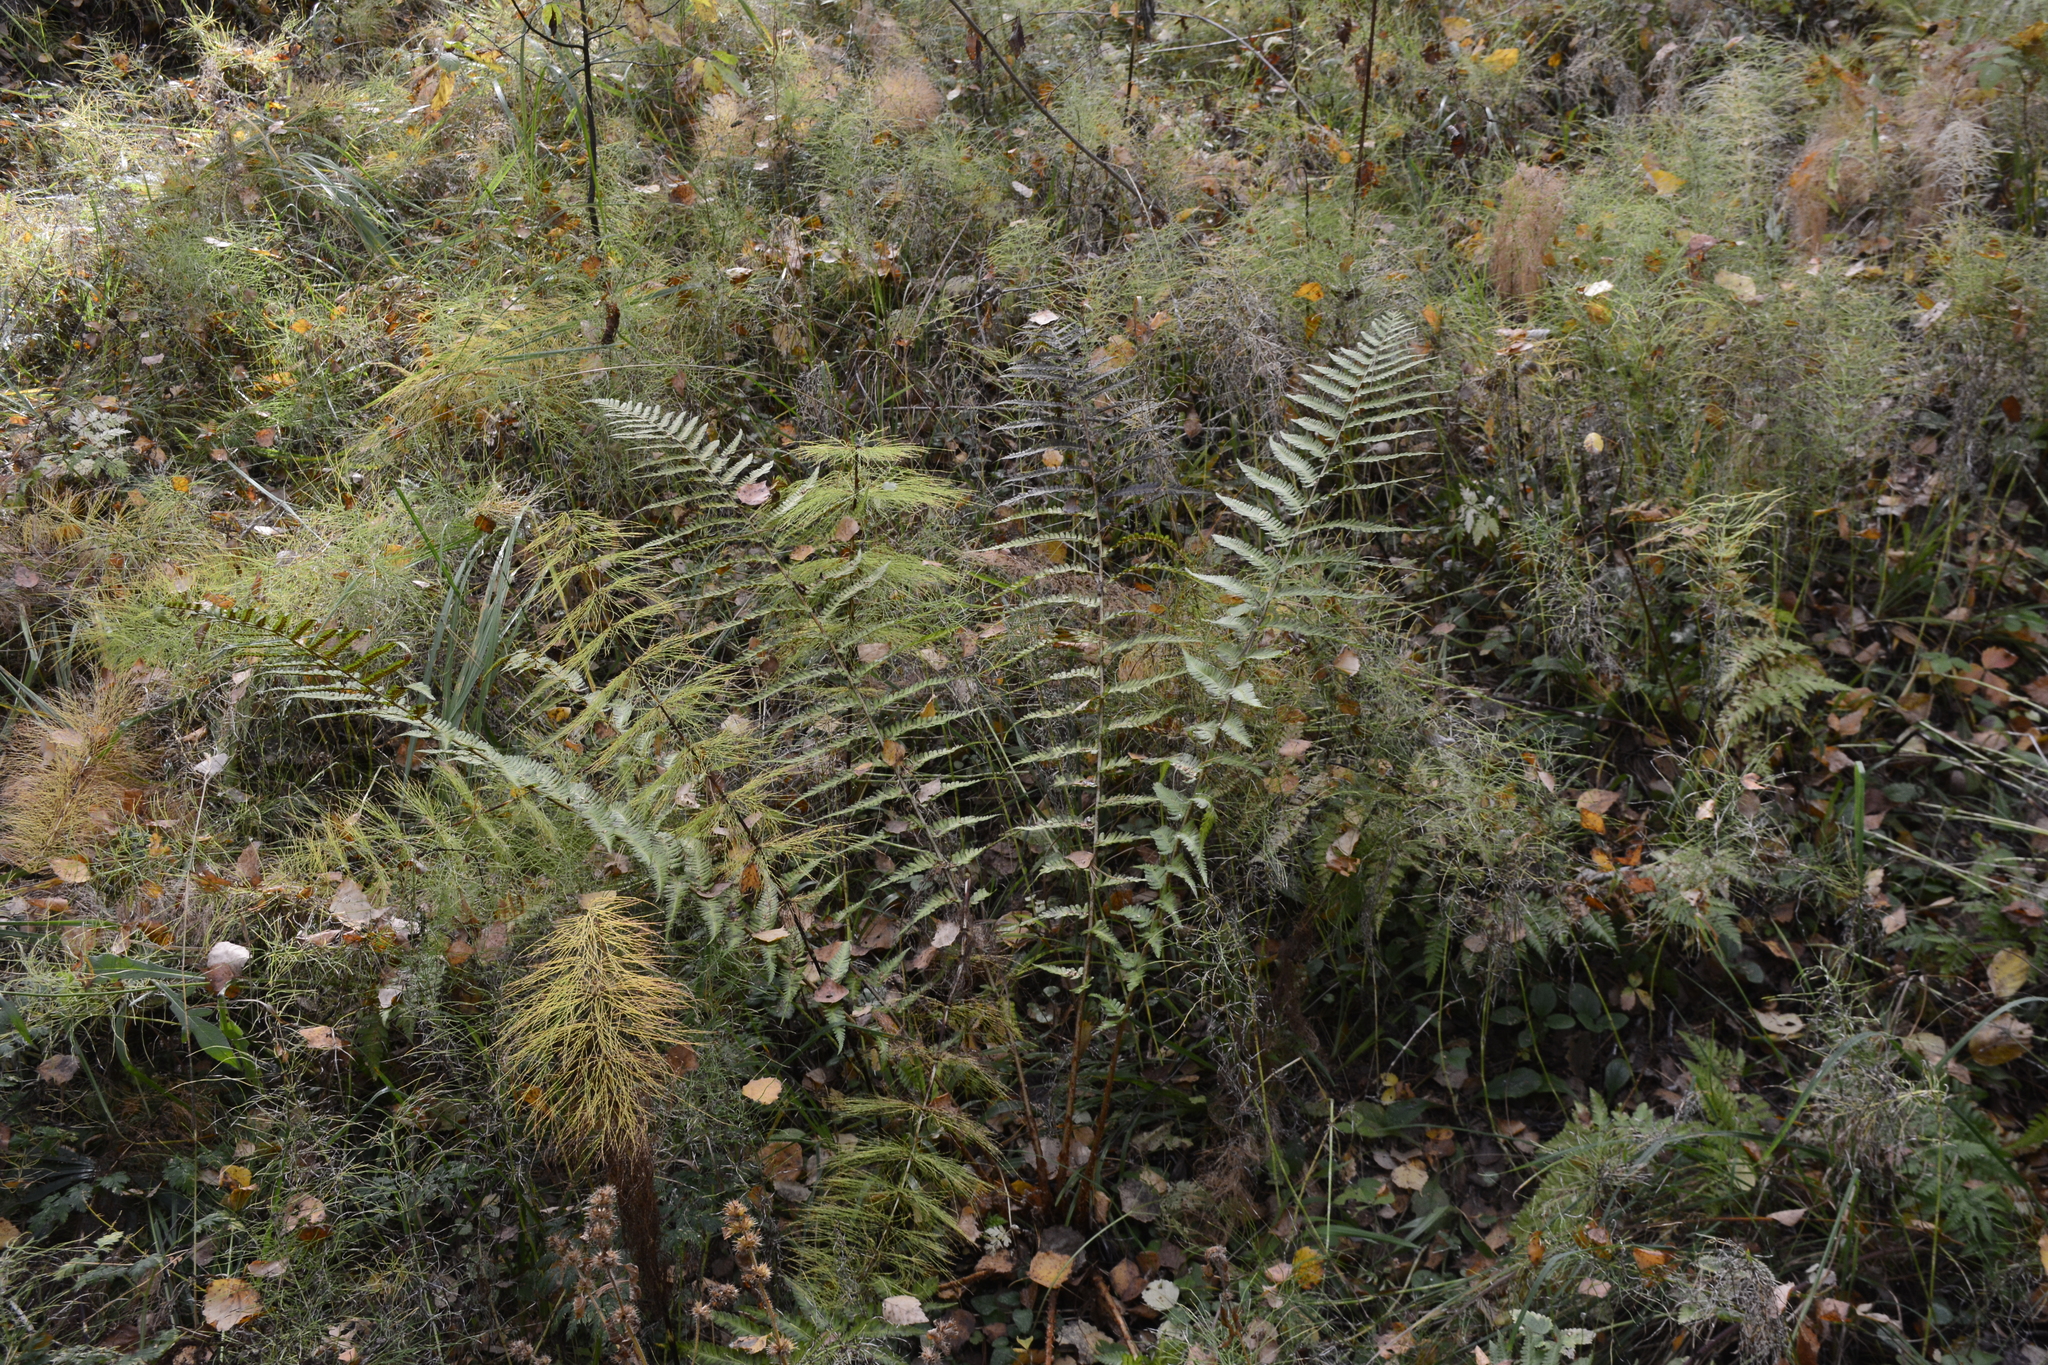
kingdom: Plantae
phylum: Tracheophyta
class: Polypodiopsida
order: Polypodiales
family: Dryopteridaceae
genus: Dryopteris
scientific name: Dryopteris filix-mas
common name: Male fern
